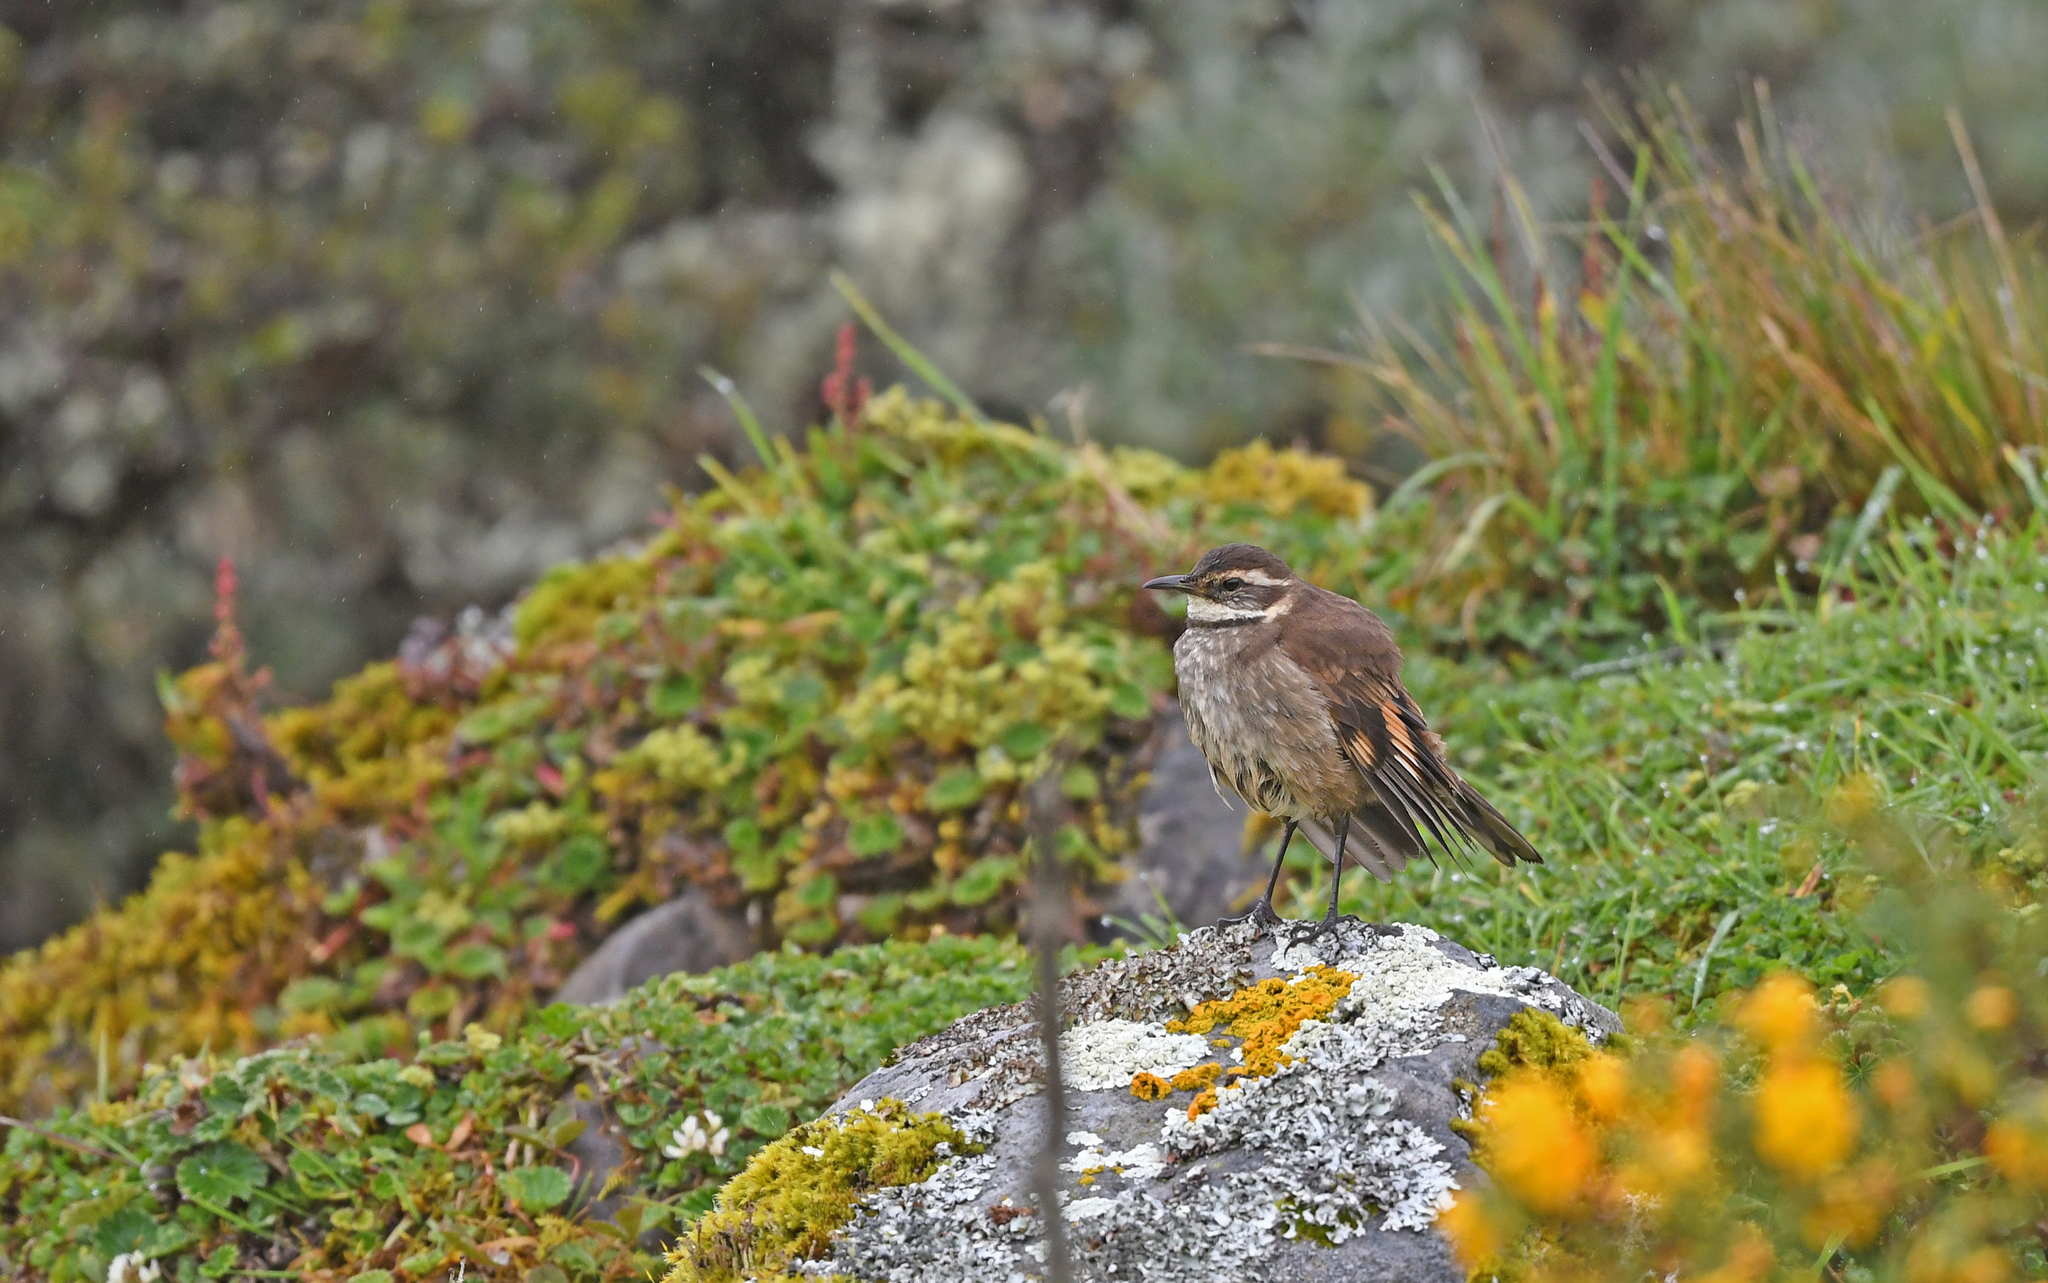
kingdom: Animalia
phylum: Chordata
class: Aves
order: Passeriformes
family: Furnariidae
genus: Cinclodes
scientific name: Cinclodes albidiventris
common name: Chestnut-winged cinclodes
